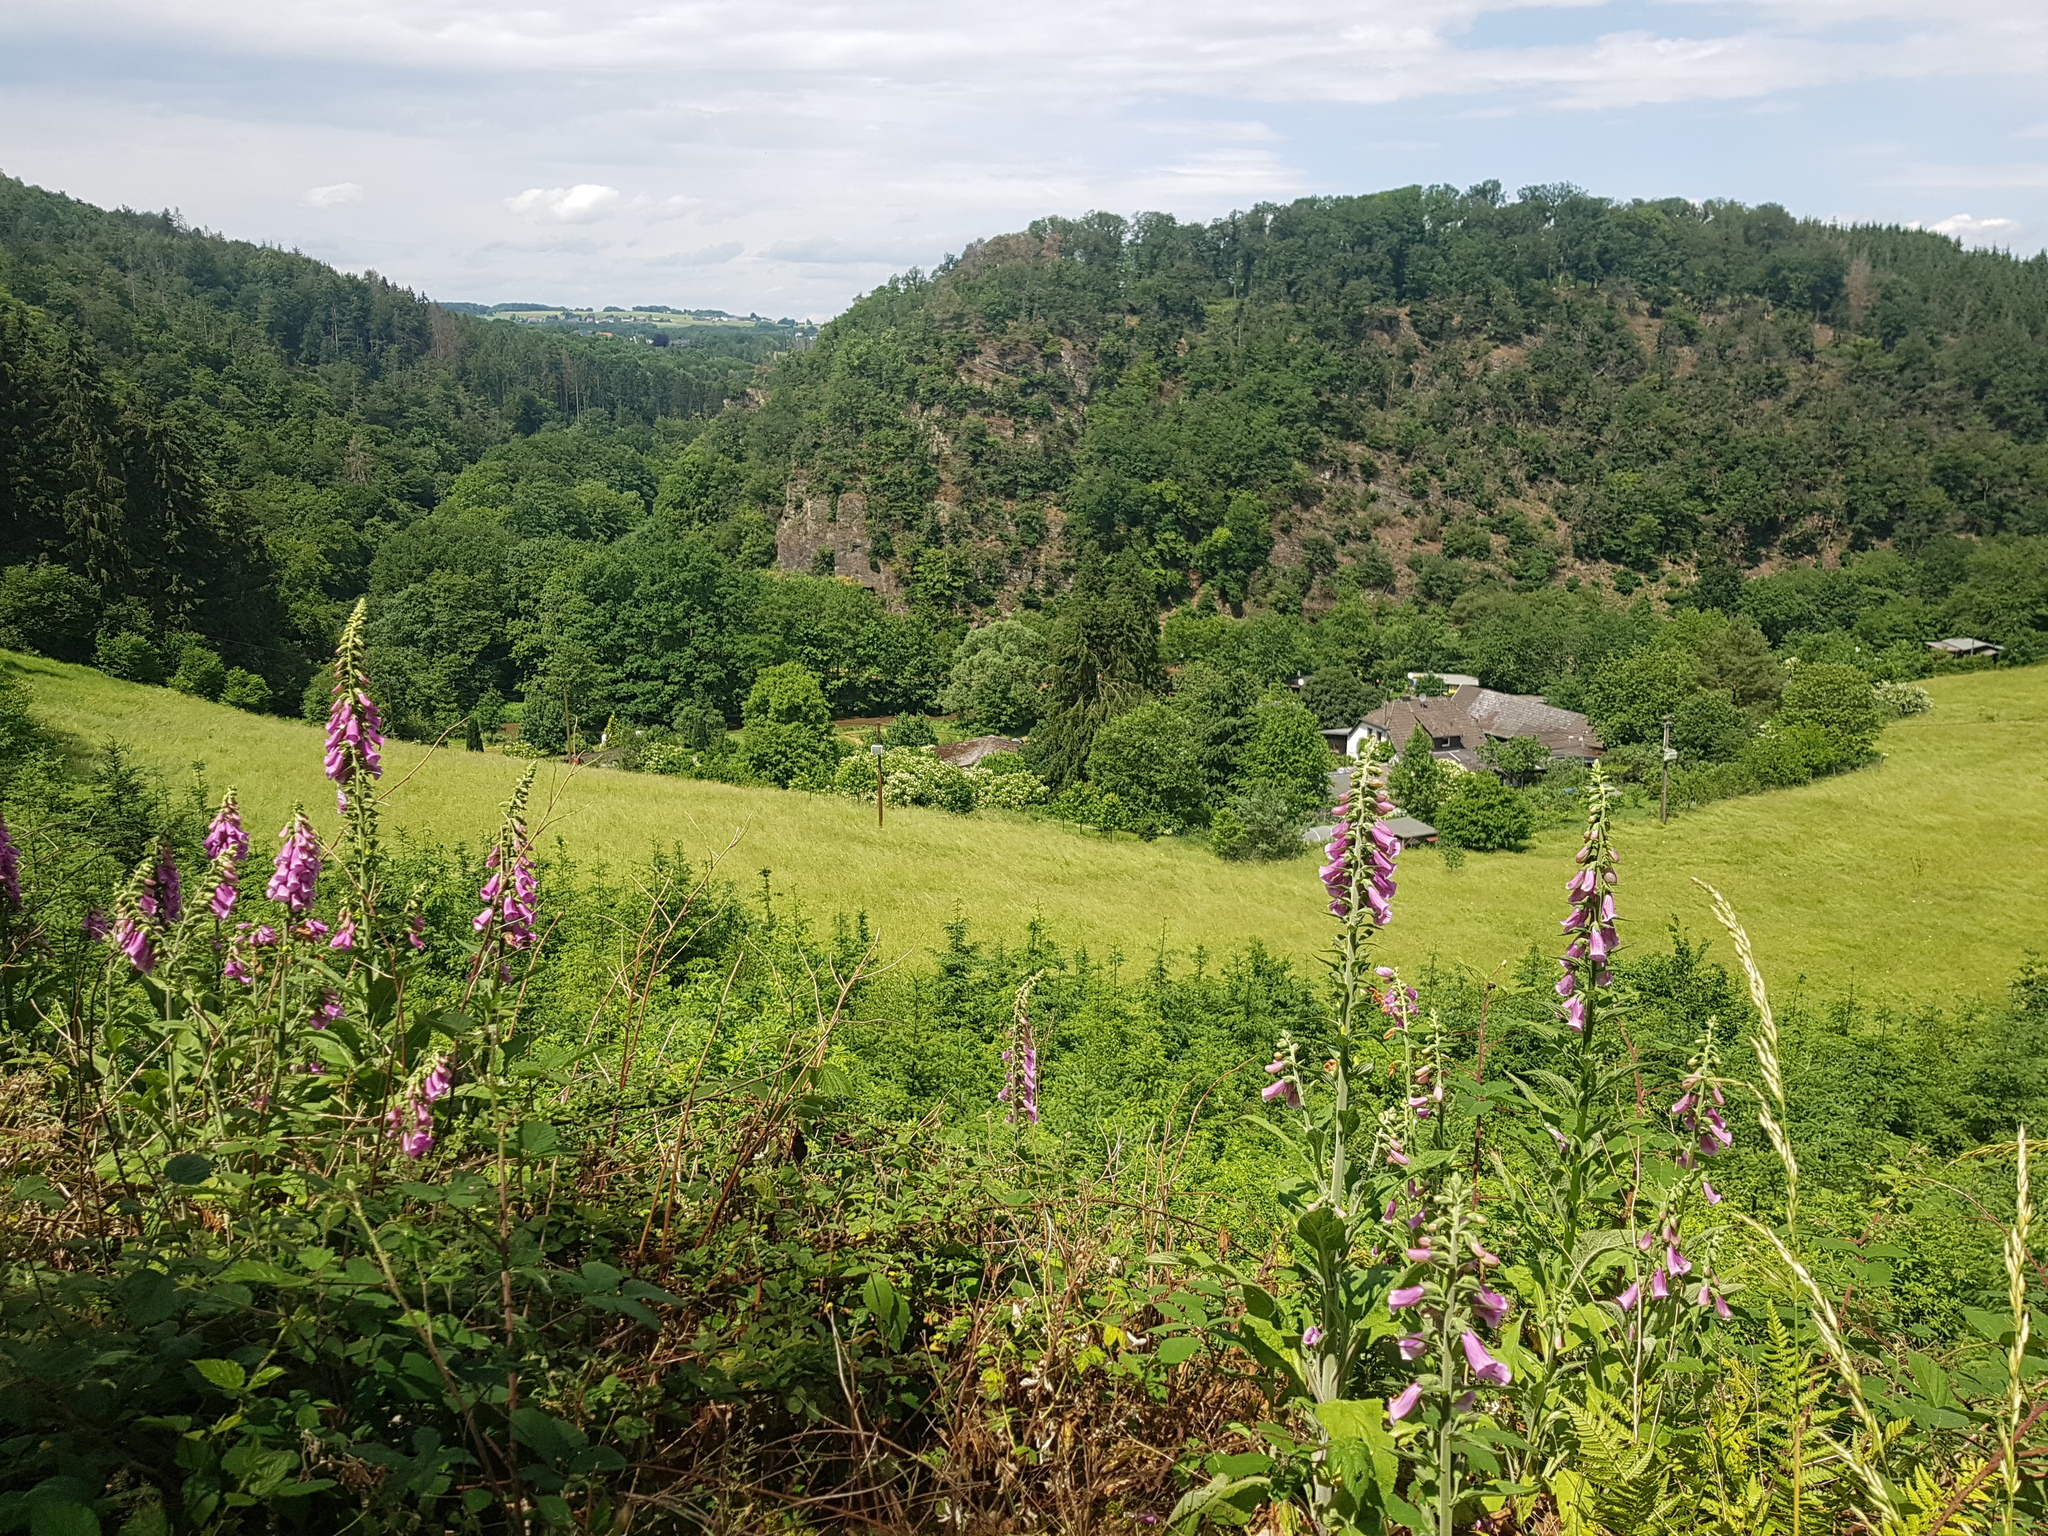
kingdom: Plantae
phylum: Tracheophyta
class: Magnoliopsida
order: Lamiales
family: Plantaginaceae
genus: Digitalis
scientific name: Digitalis purpurea
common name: Foxglove
